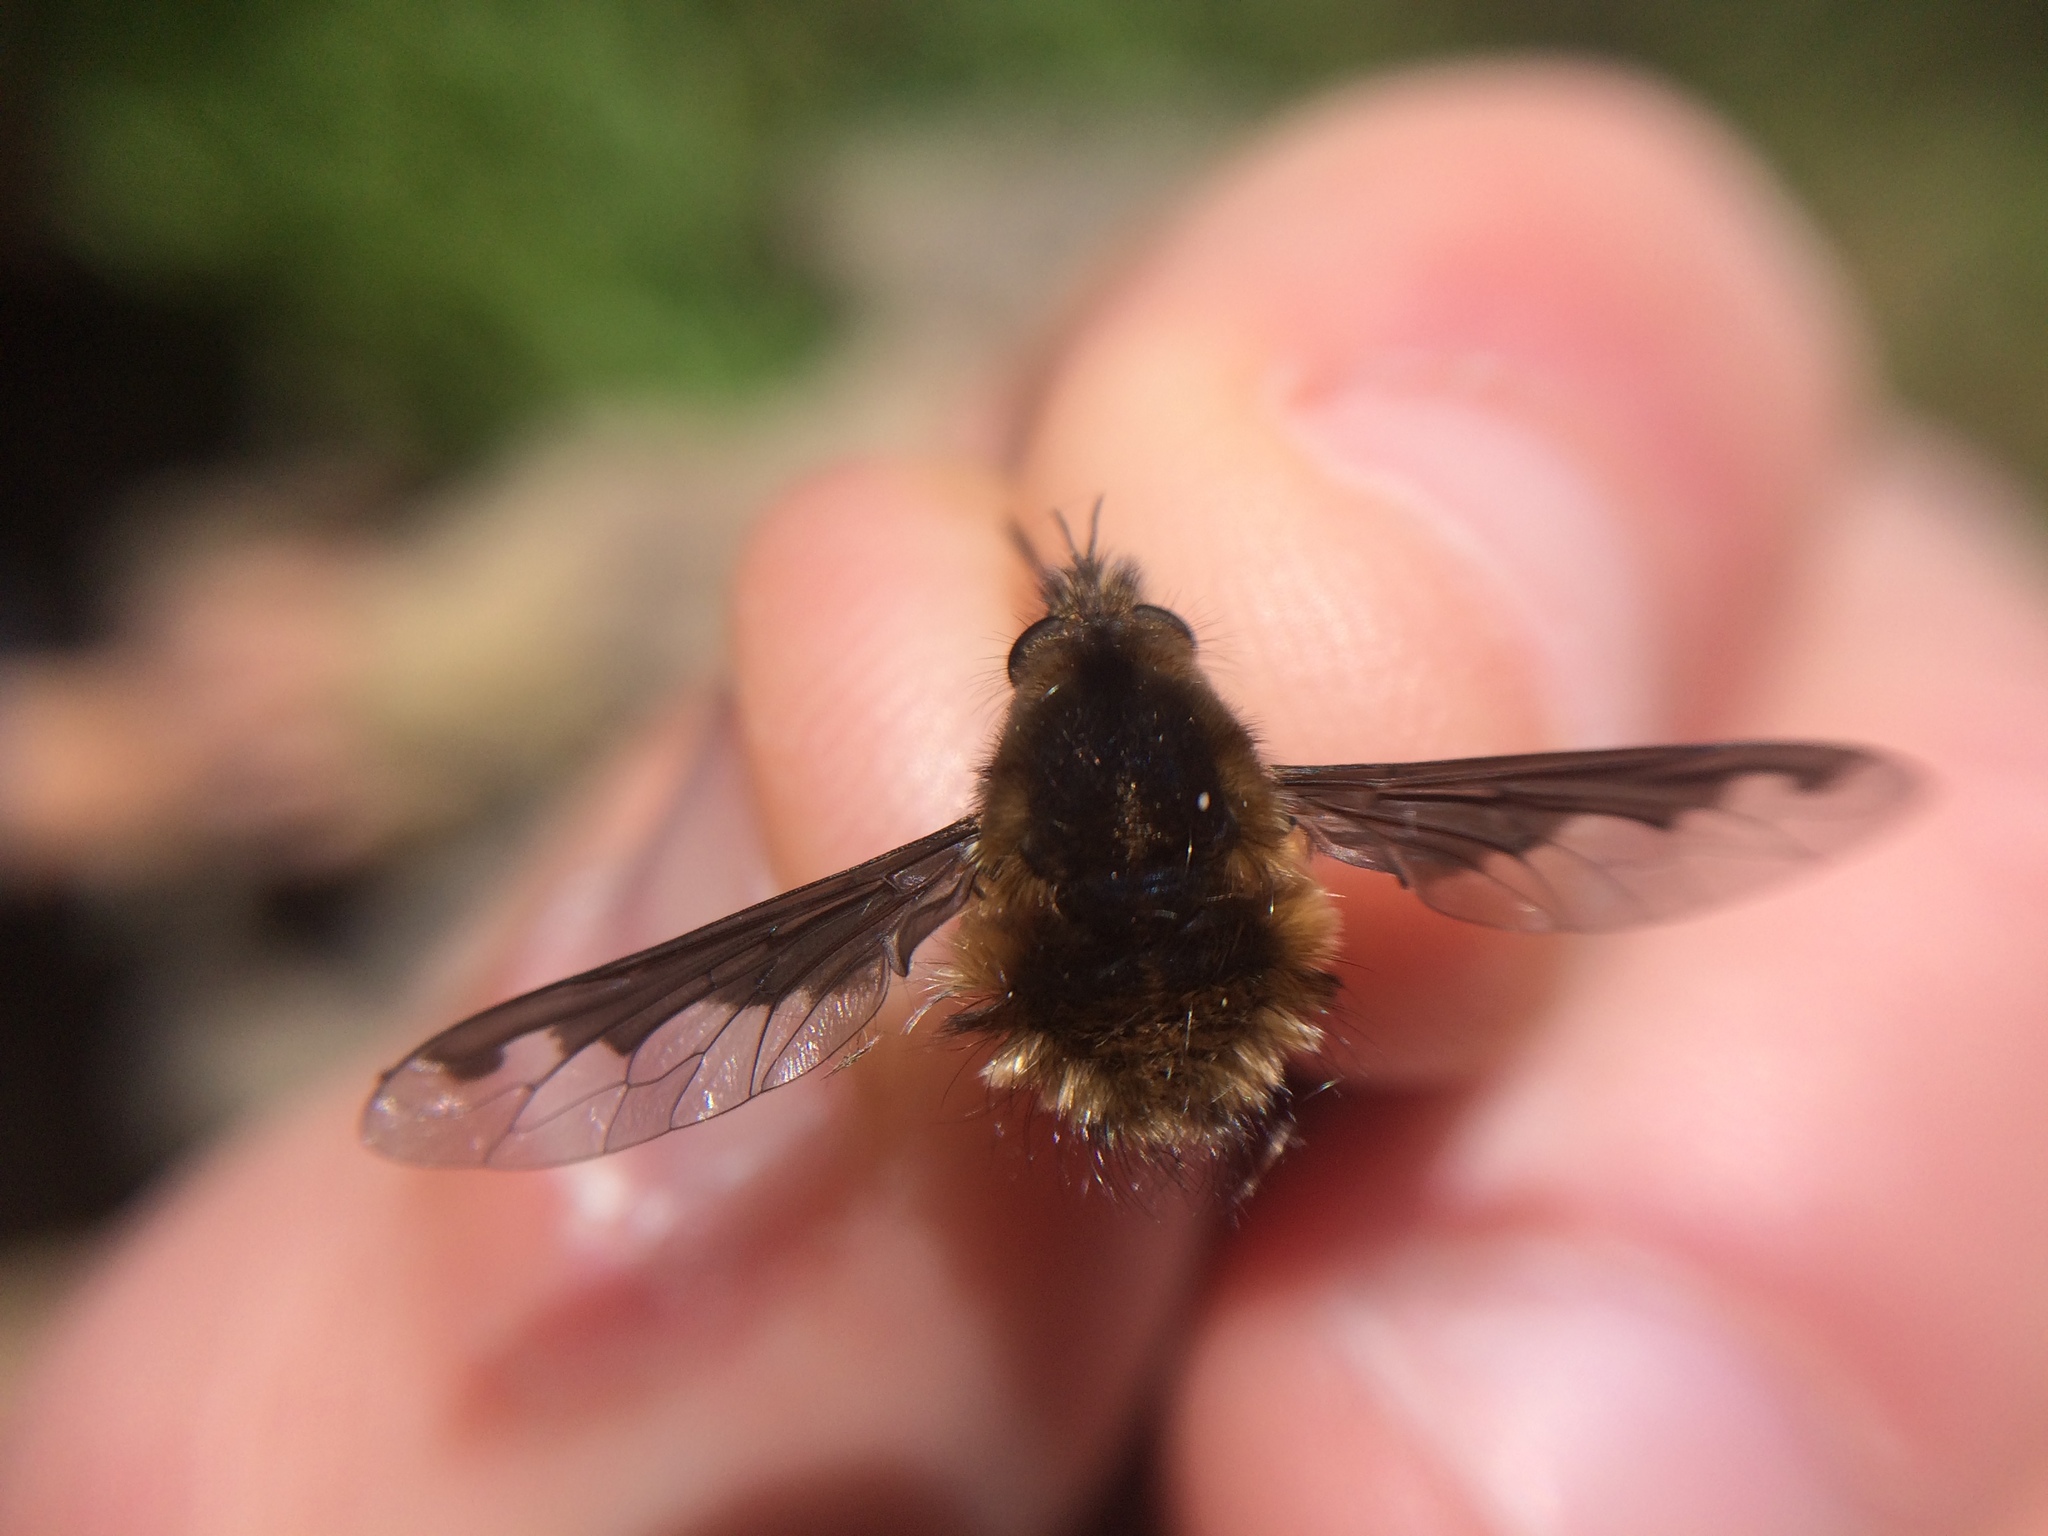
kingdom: Animalia
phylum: Arthropoda
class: Insecta
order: Diptera
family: Bombyliidae
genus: Bombylius
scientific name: Bombylius major
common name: Bee fly
